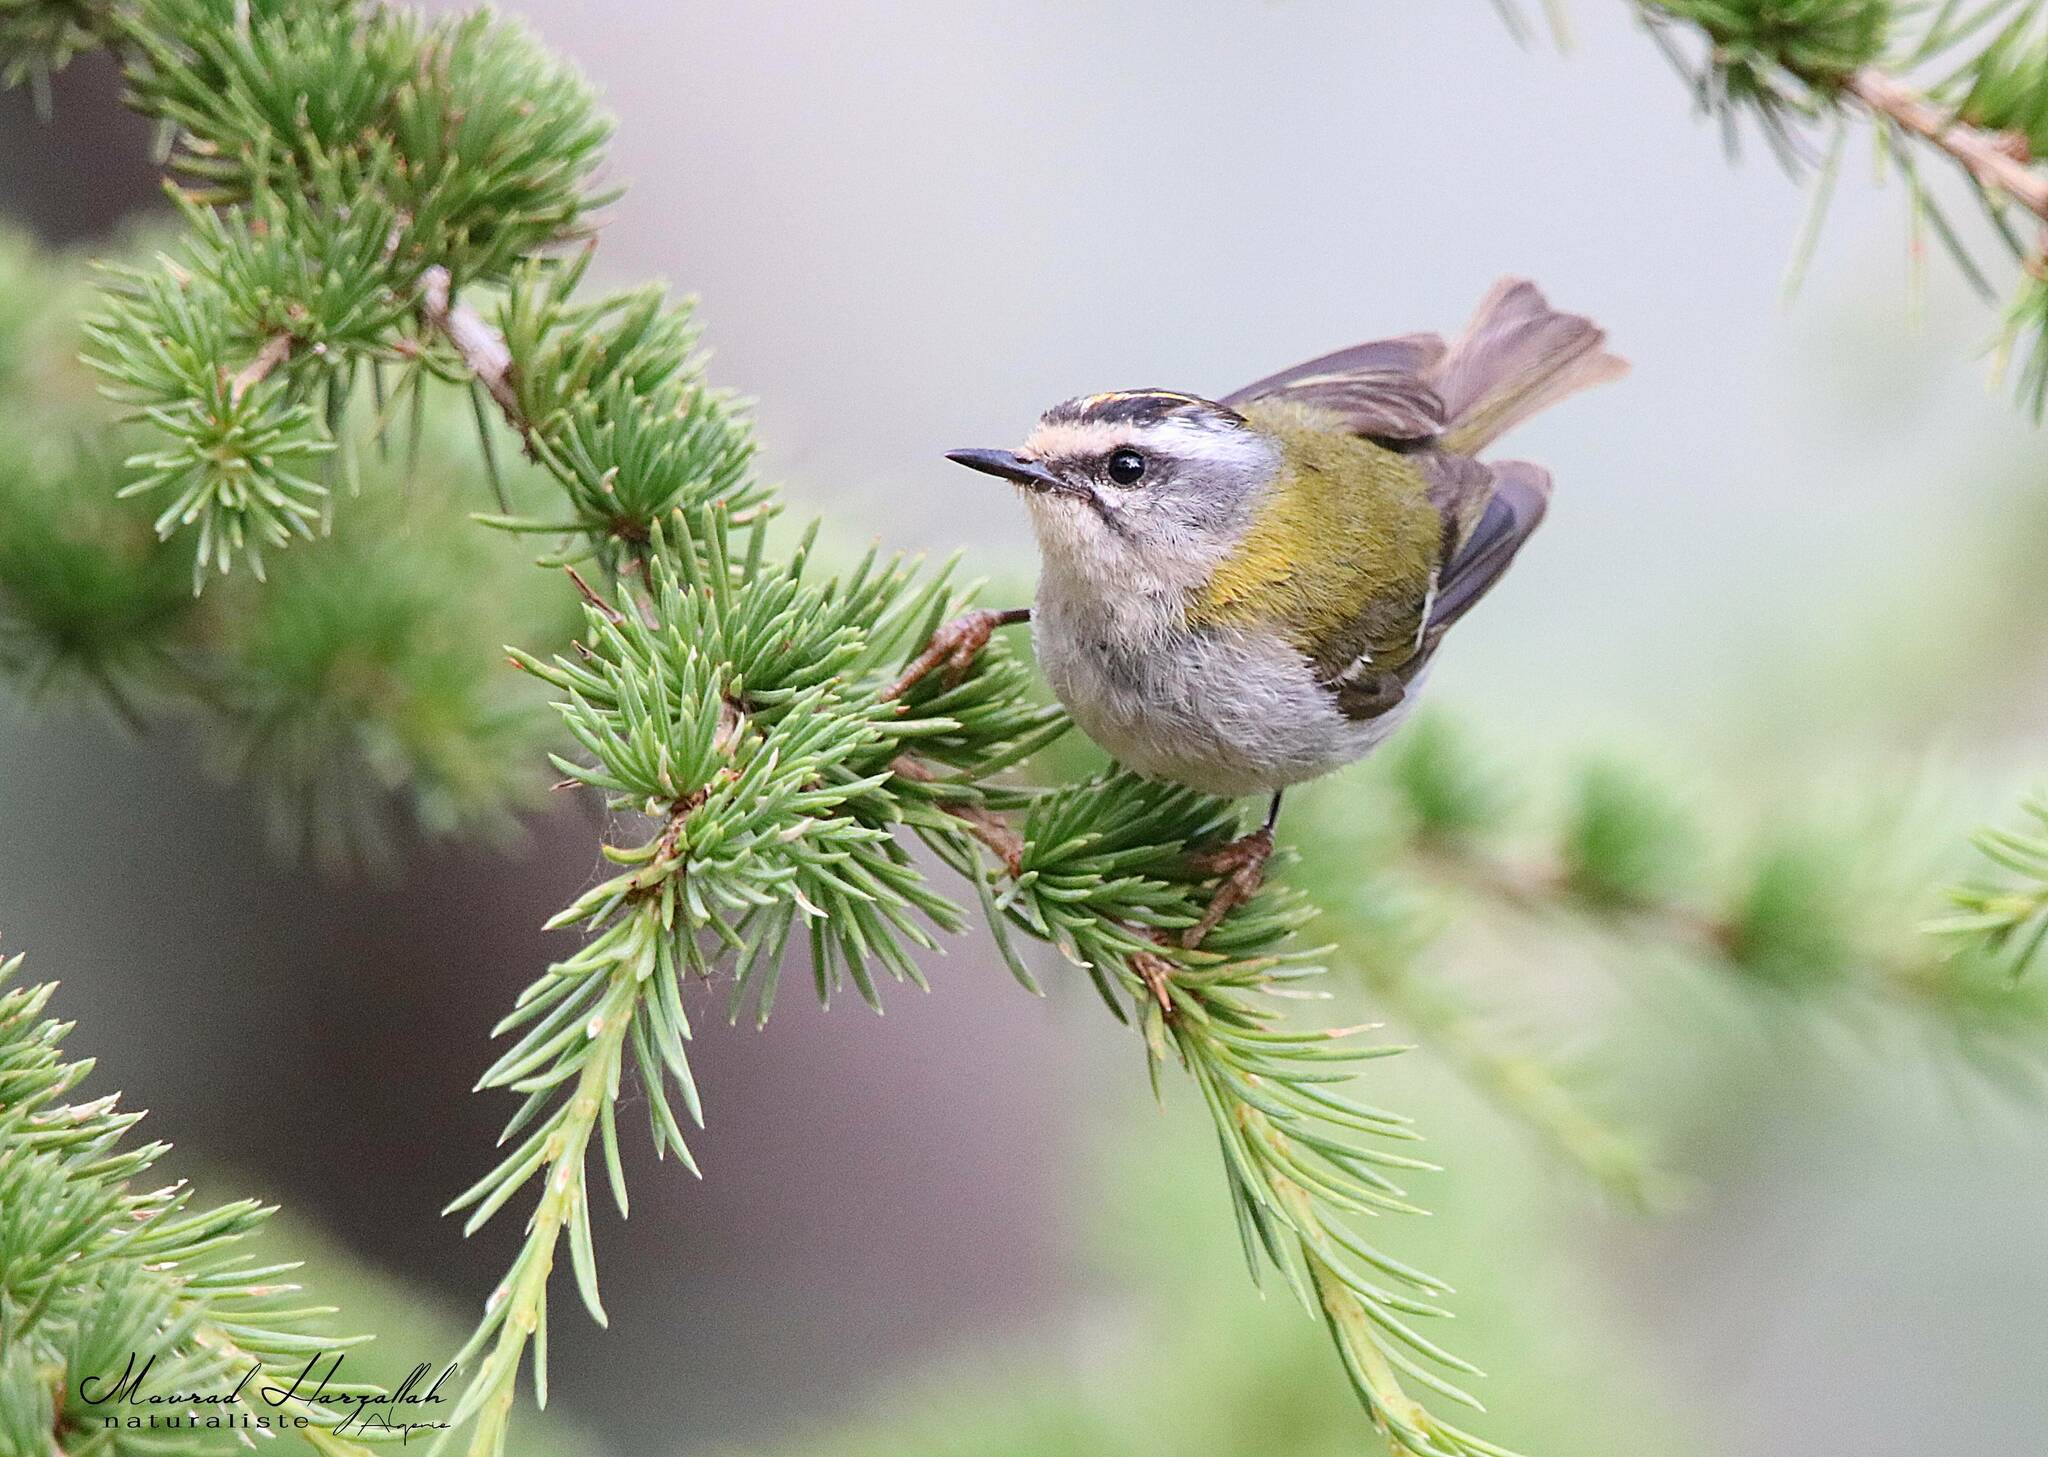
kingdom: Animalia
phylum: Chordata
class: Aves
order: Passeriformes
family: Regulidae
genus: Regulus
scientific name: Regulus ignicapilla
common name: Firecrest
